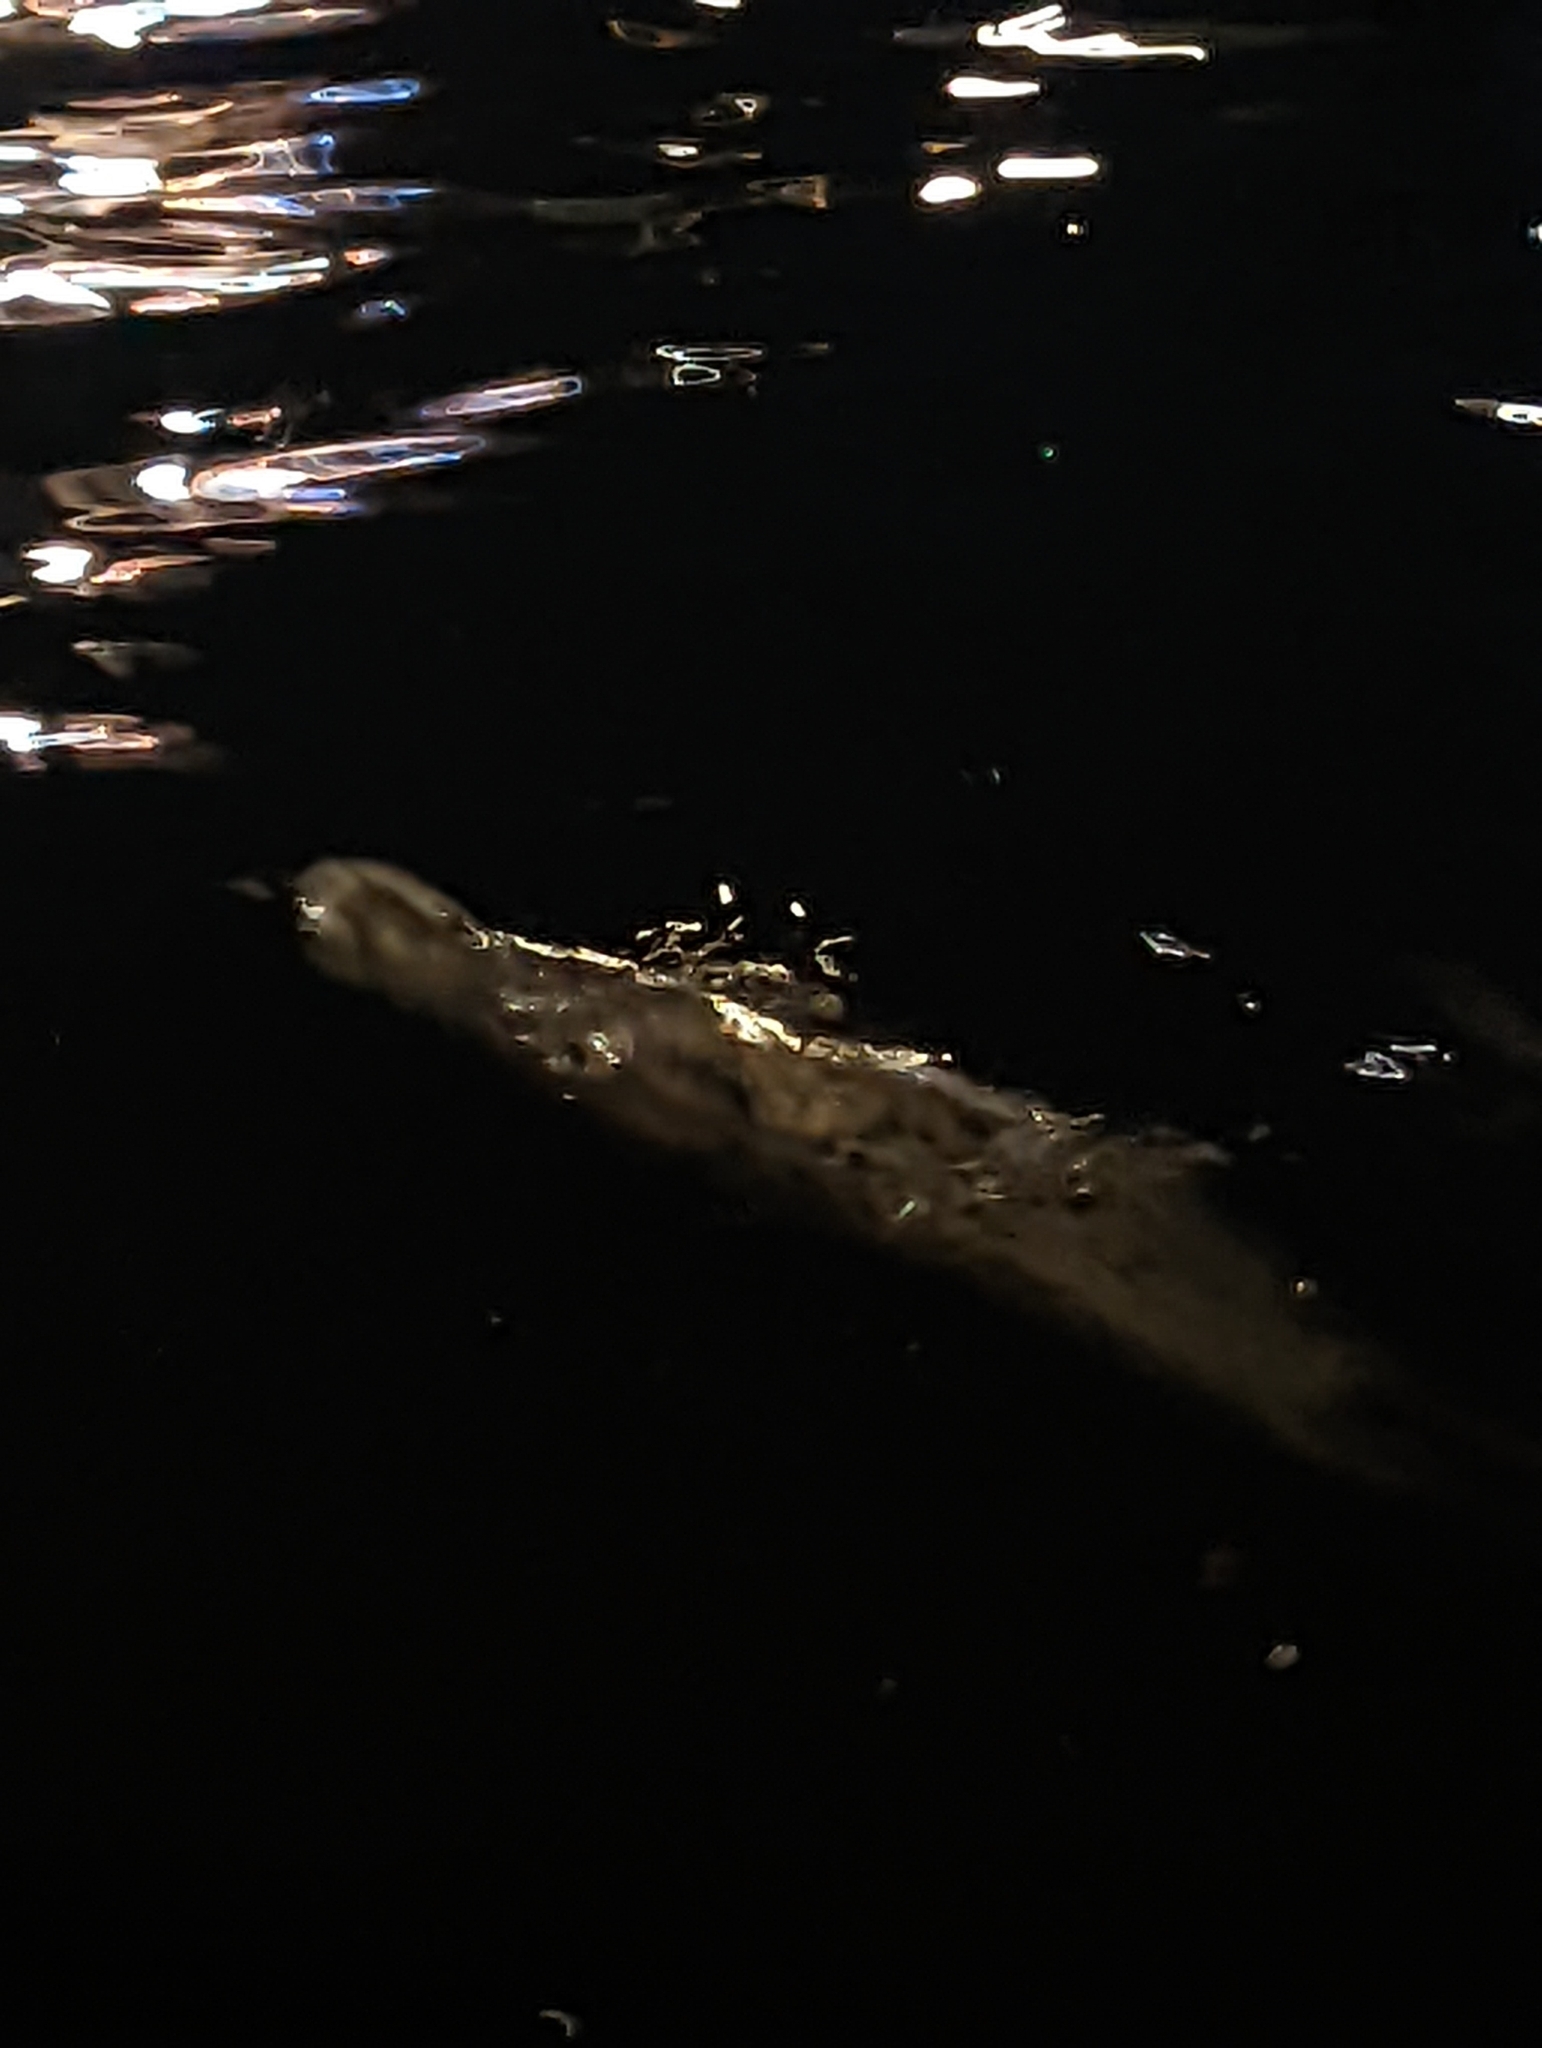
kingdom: Animalia
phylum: Chordata
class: Mammalia
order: Carnivora
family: Phocidae
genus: Phoca
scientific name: Phoca vitulina
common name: Harbor seal
